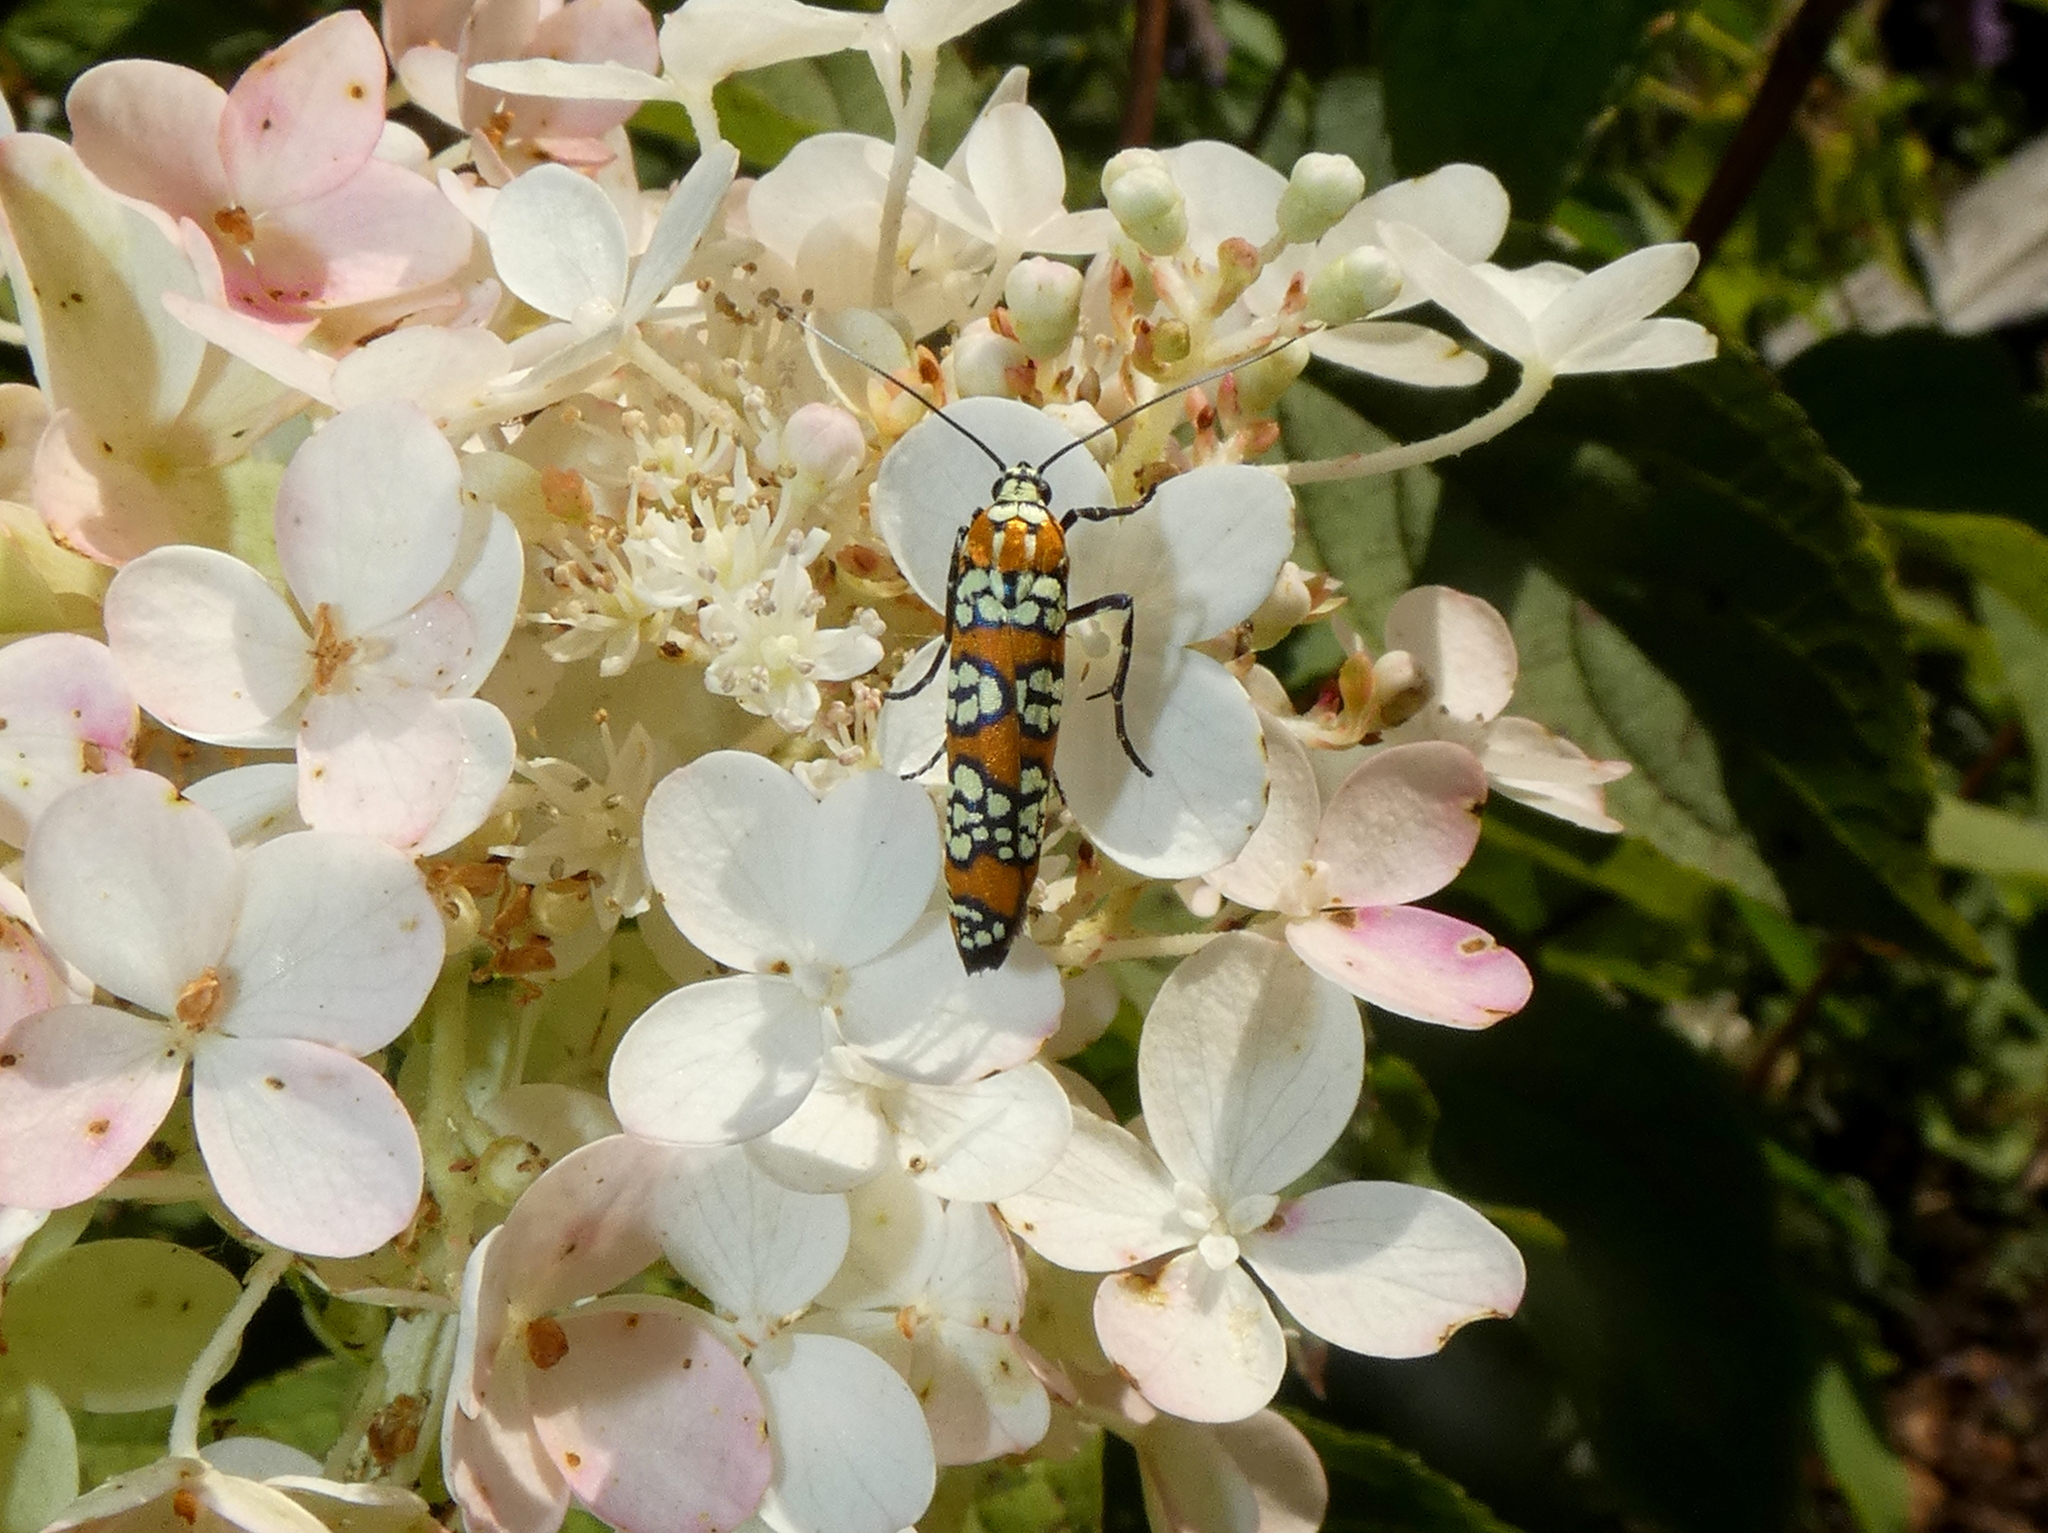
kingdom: Animalia
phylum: Arthropoda
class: Insecta
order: Lepidoptera
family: Attevidae
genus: Atteva
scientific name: Atteva punctella
